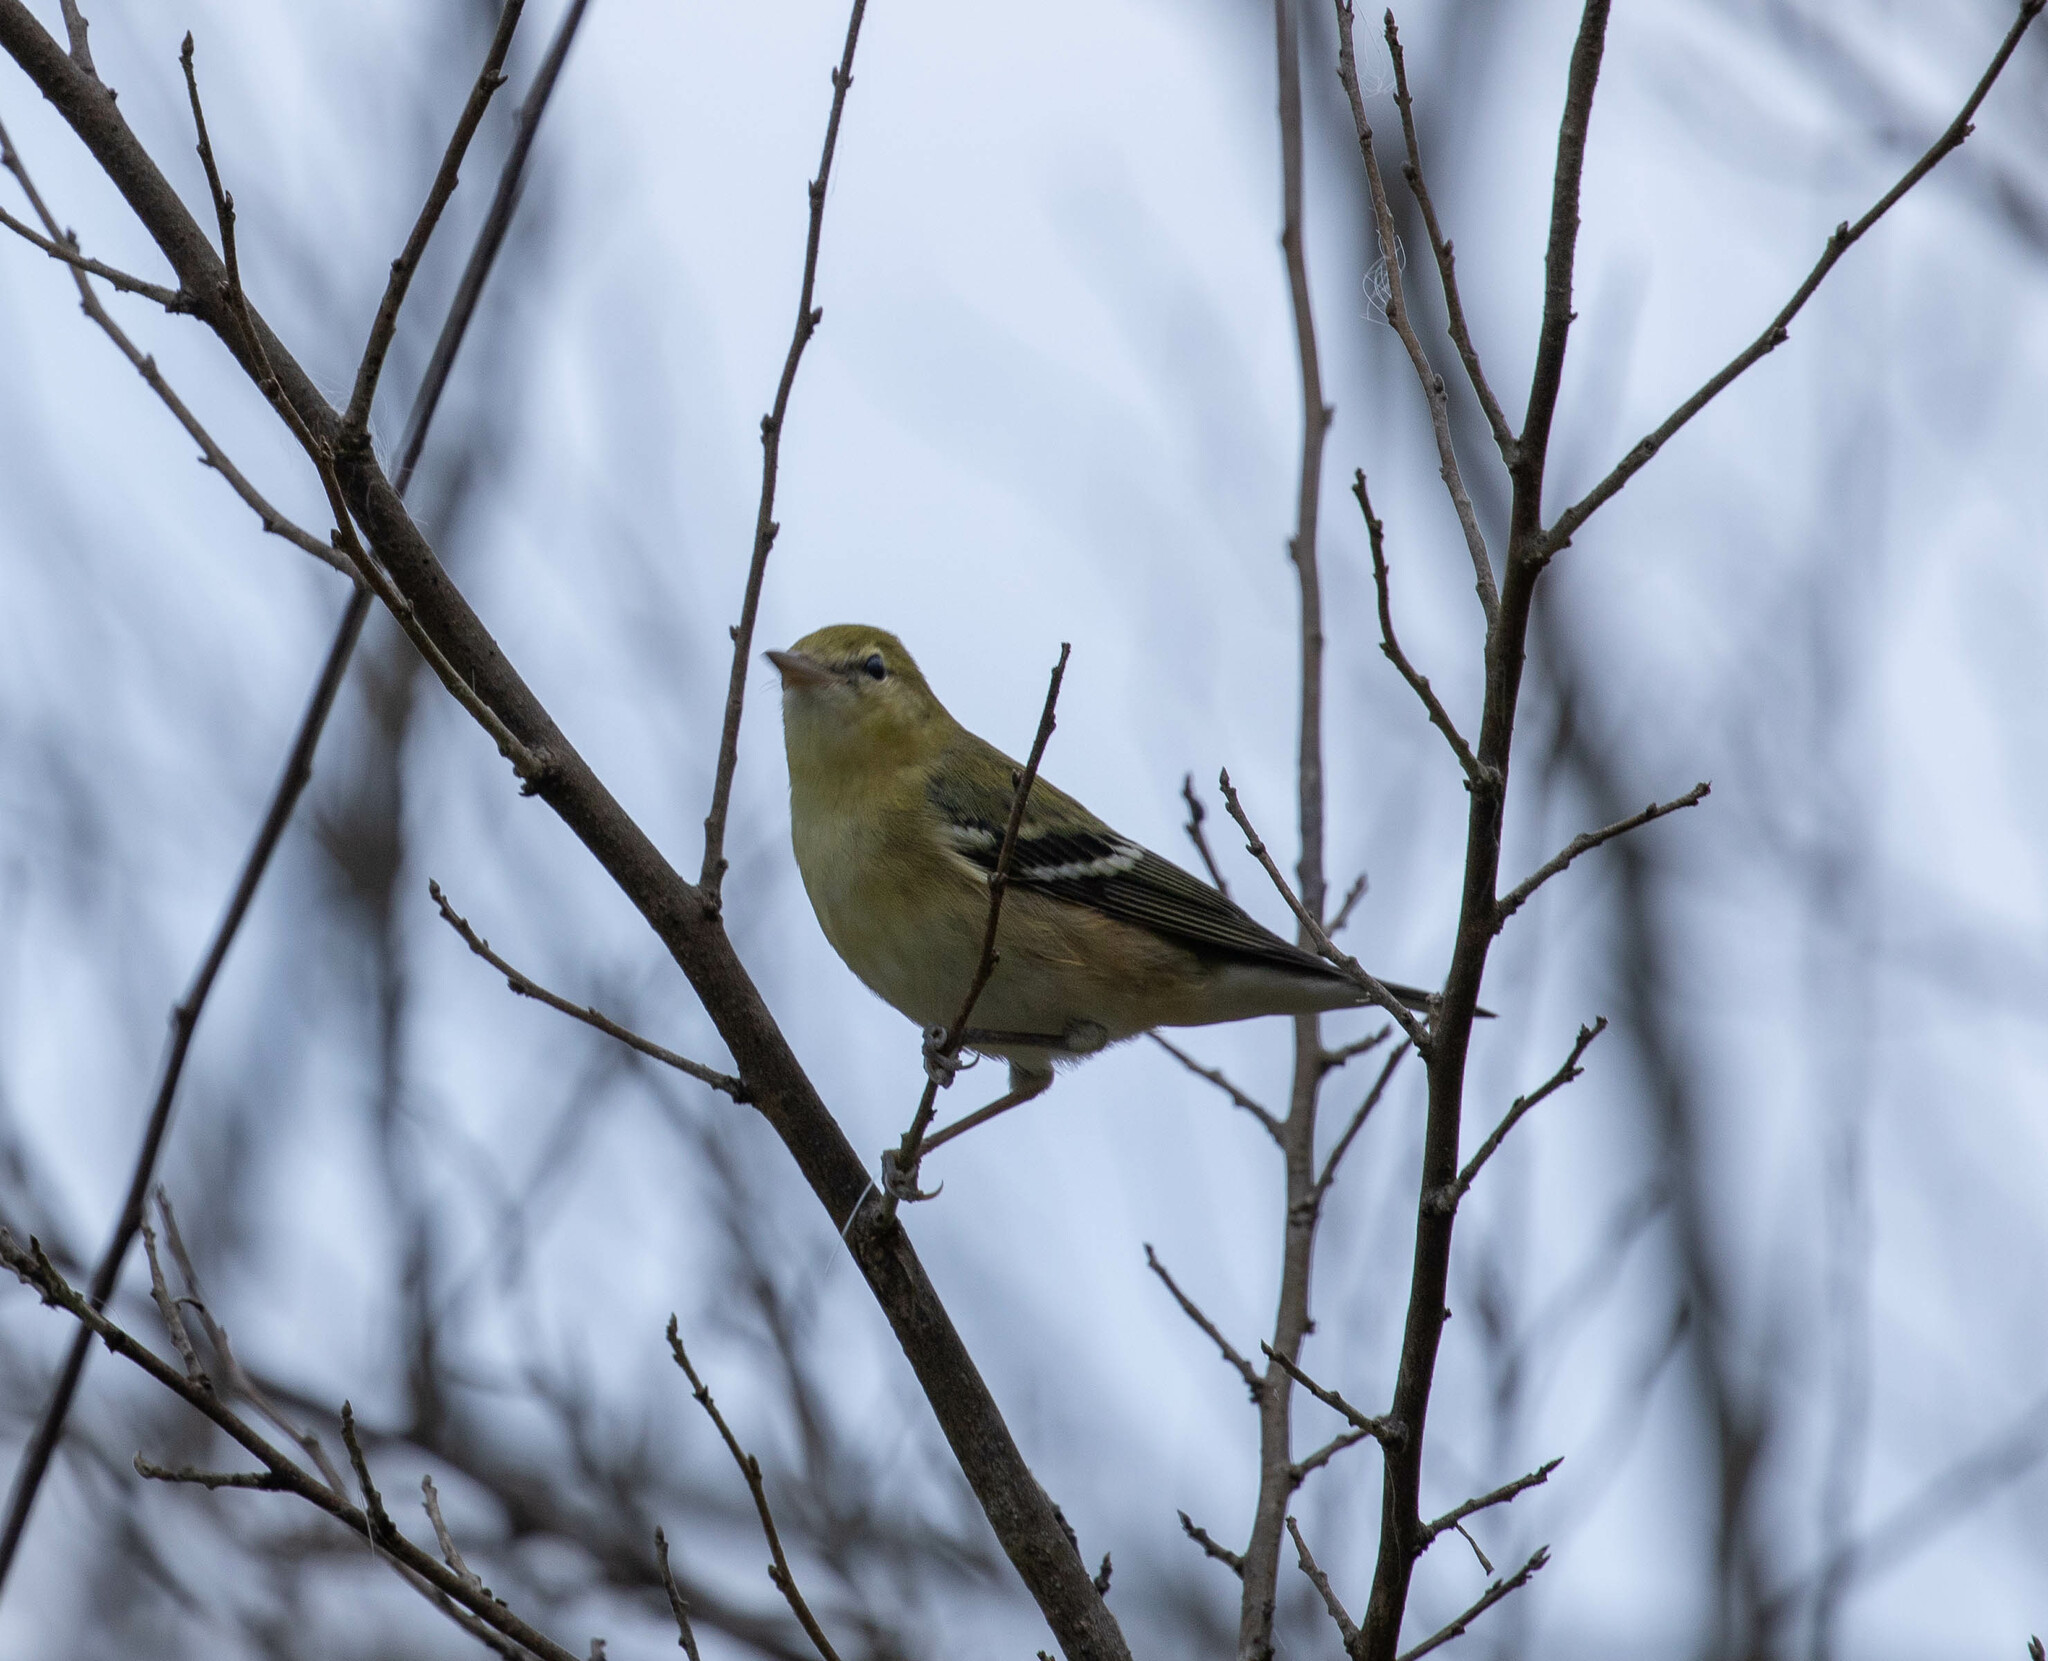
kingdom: Animalia
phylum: Chordata
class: Aves
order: Passeriformes
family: Parulidae
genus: Setophaga
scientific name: Setophaga castanea
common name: Bay-breasted warbler
